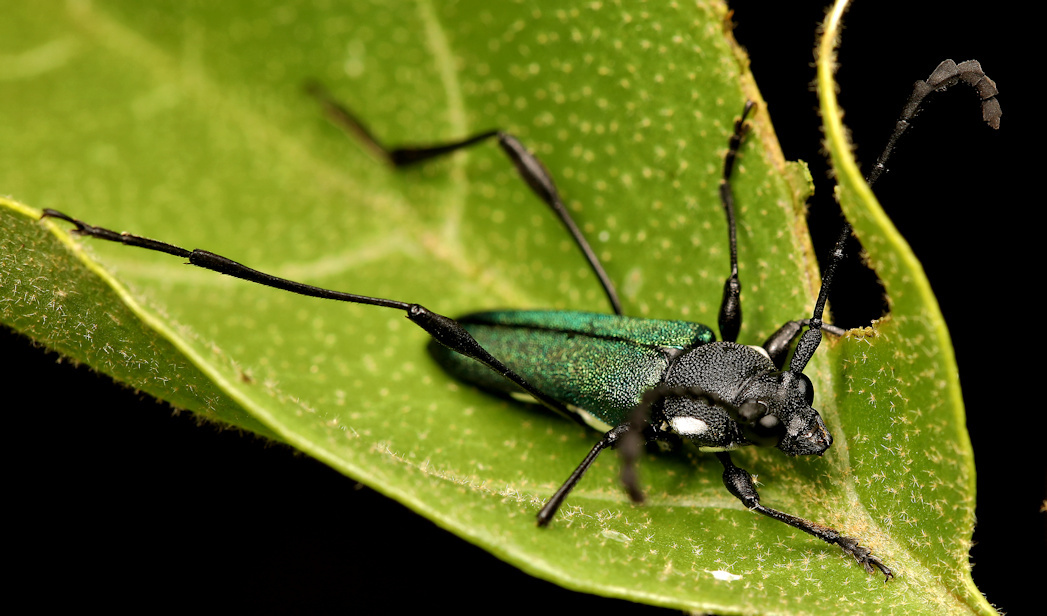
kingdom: Animalia
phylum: Arthropoda
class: Insecta
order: Coleoptera
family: Cerambycidae
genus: Helymaeus
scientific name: Helymaeus glabripennis
